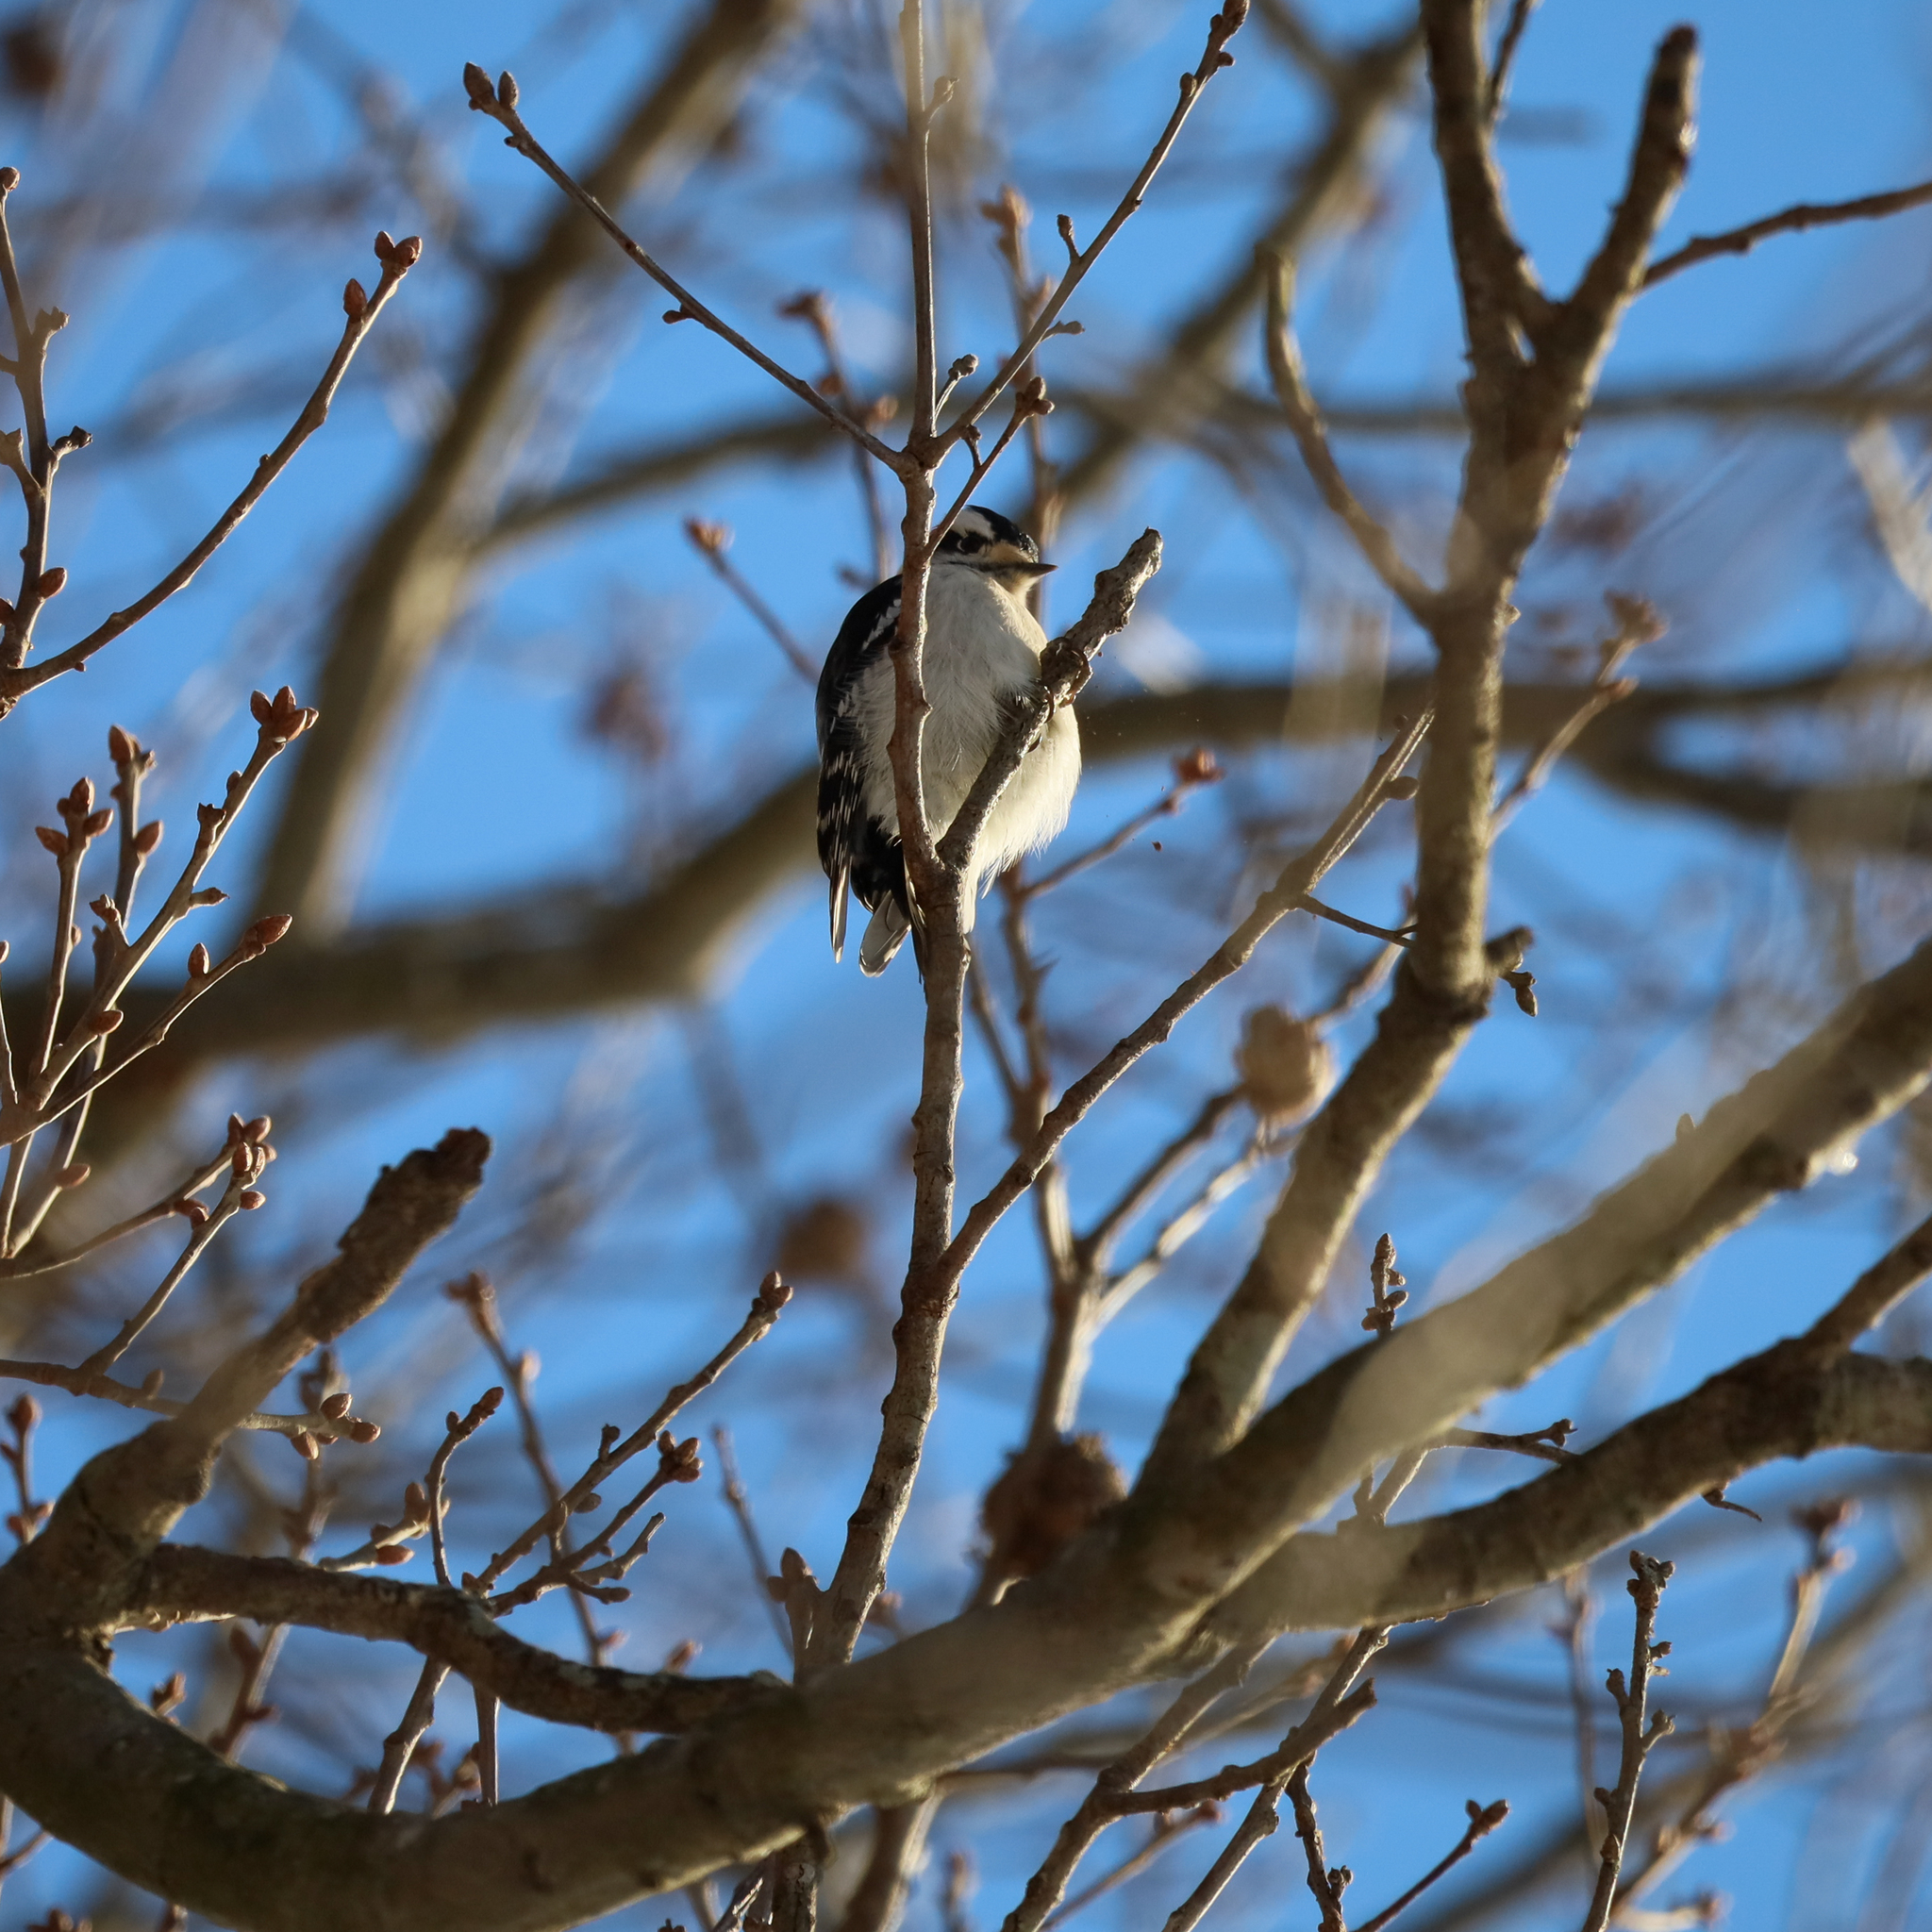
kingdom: Animalia
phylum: Chordata
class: Aves
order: Piciformes
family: Picidae
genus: Dryobates
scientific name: Dryobates pubescens
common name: Downy woodpecker
